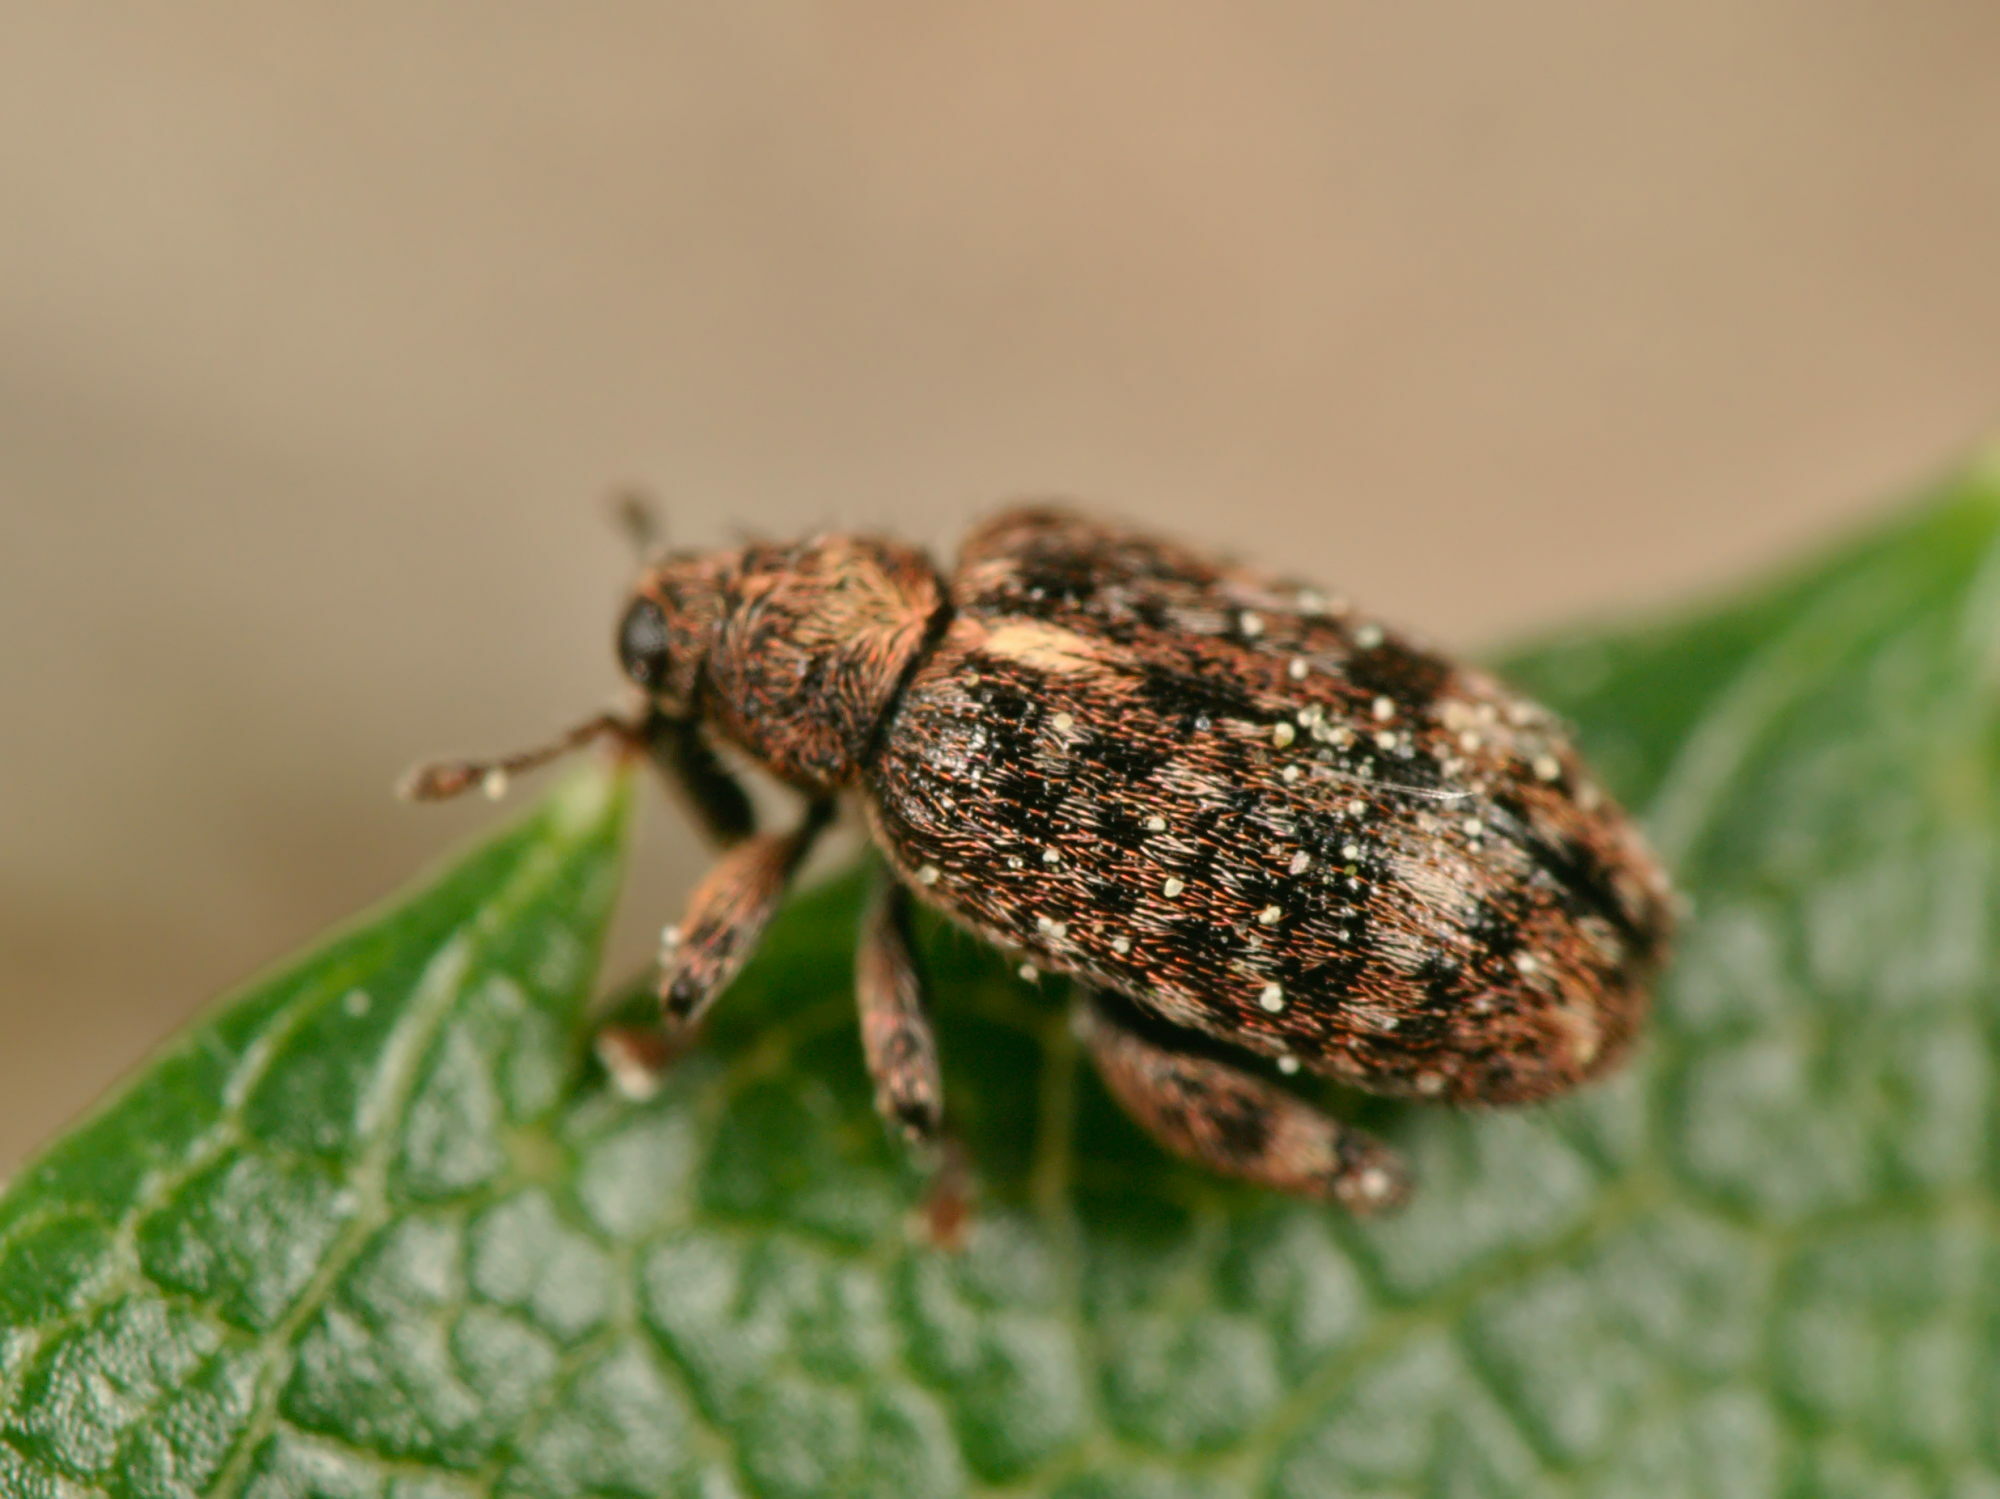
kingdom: Animalia
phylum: Arthropoda
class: Insecta
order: Coleoptera
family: Curculionidae
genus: Orchestes
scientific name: Orchestes pilosus
